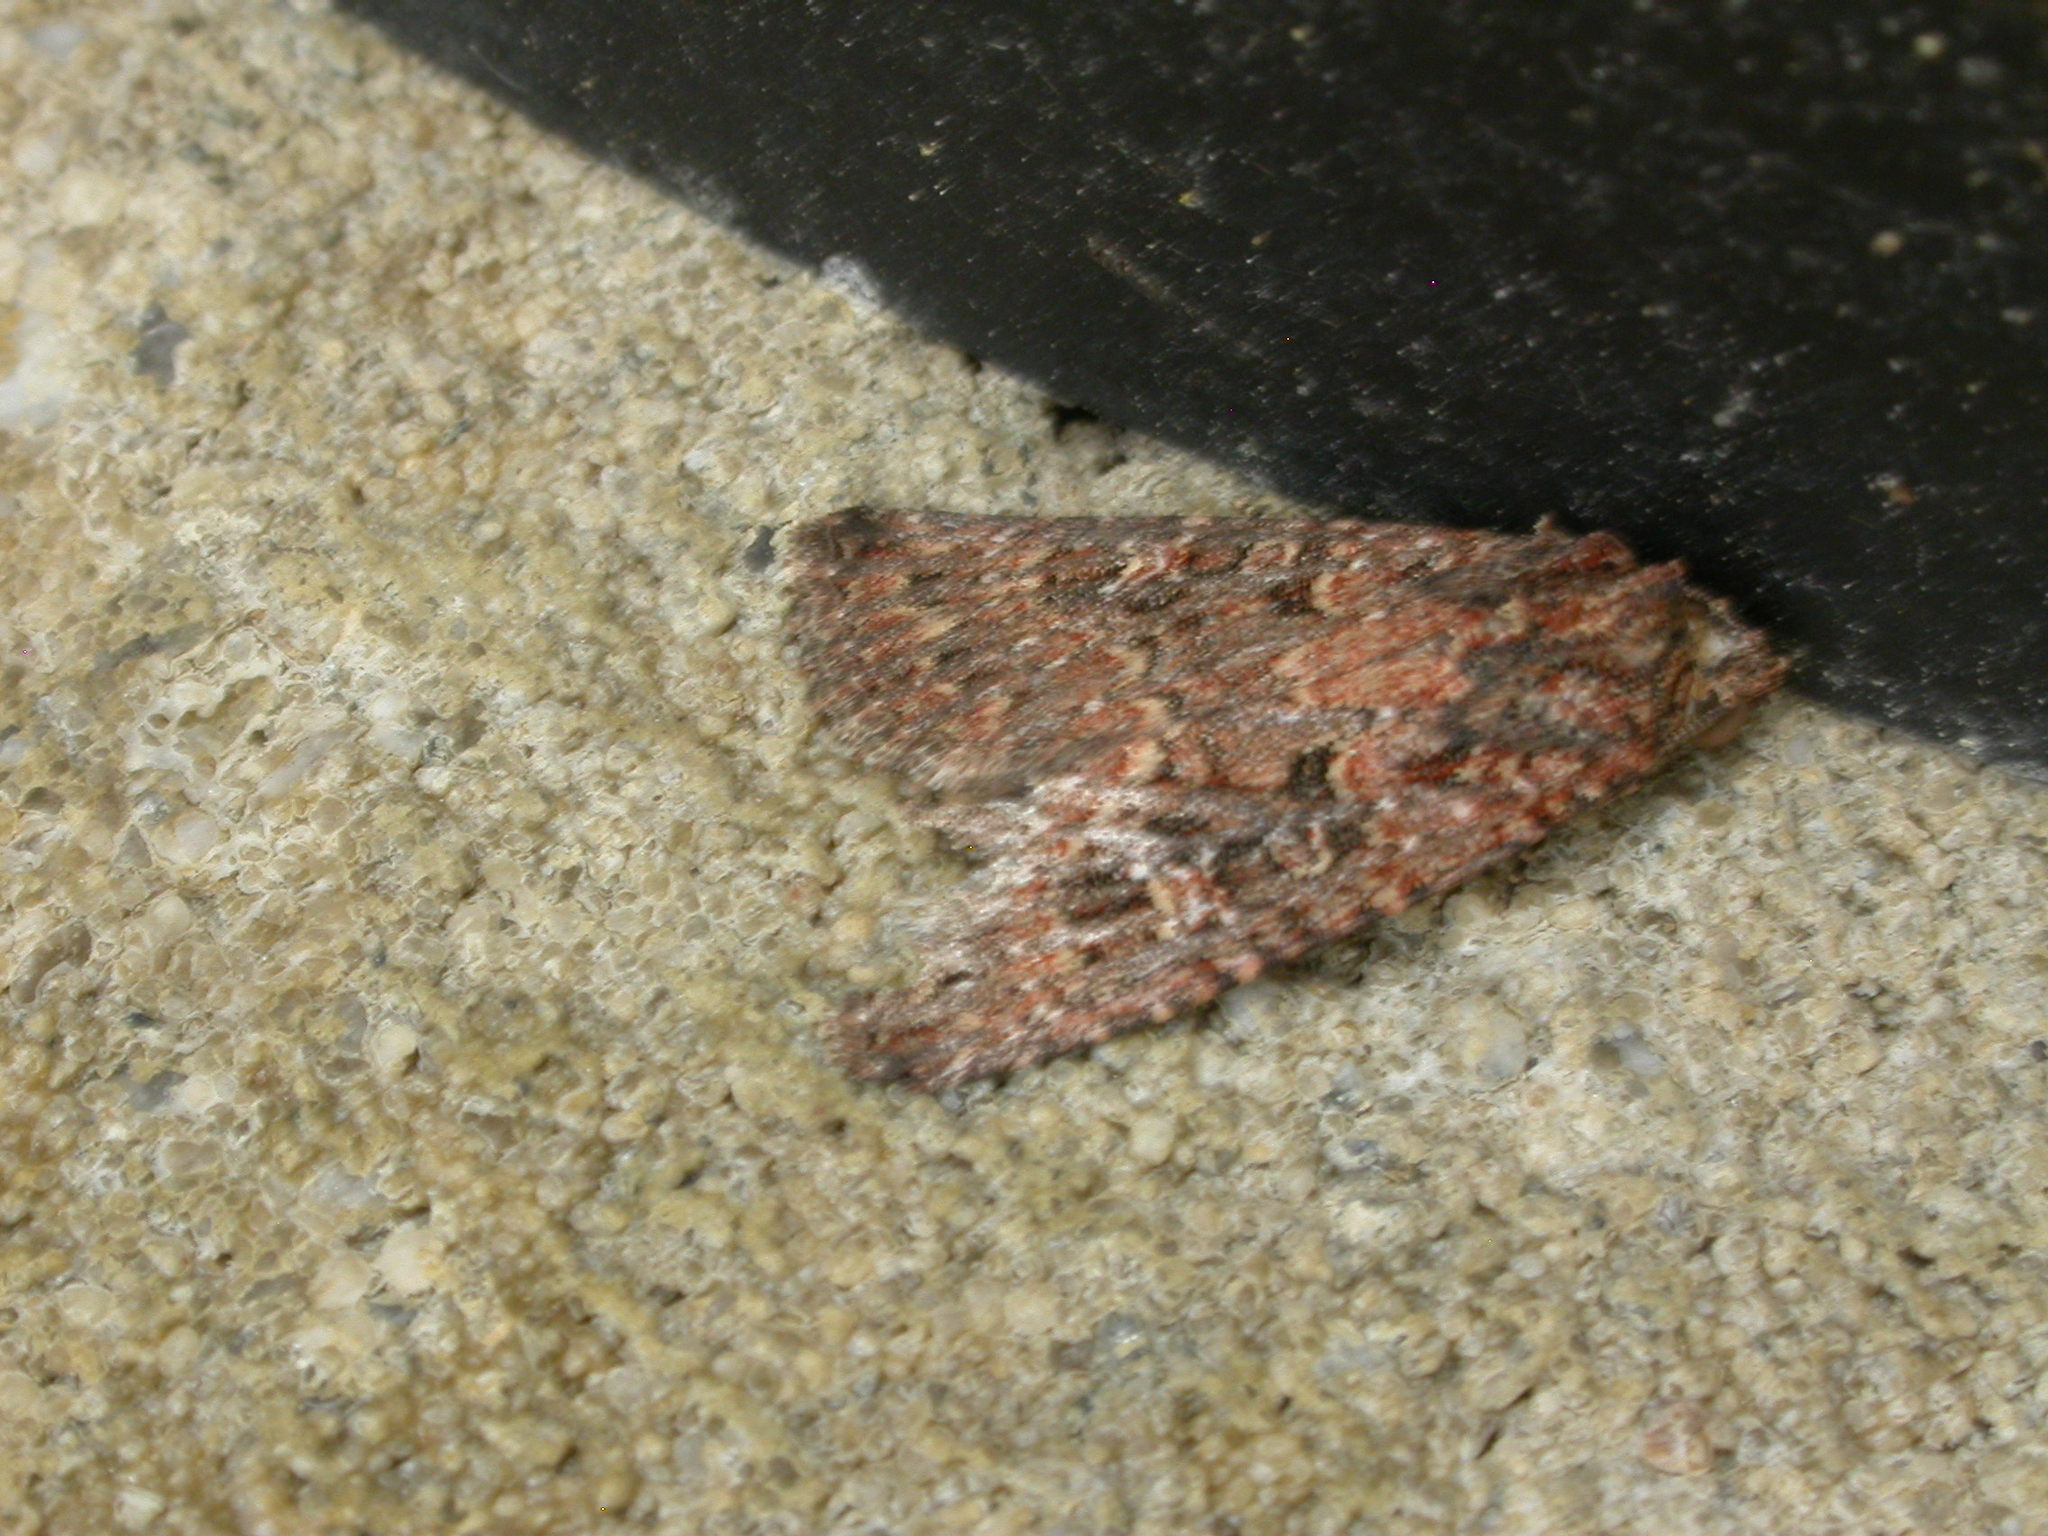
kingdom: Animalia
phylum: Arthropoda
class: Insecta
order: Lepidoptera
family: Noctuidae
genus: Hypoperigea
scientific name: Hypoperigea tonsa
